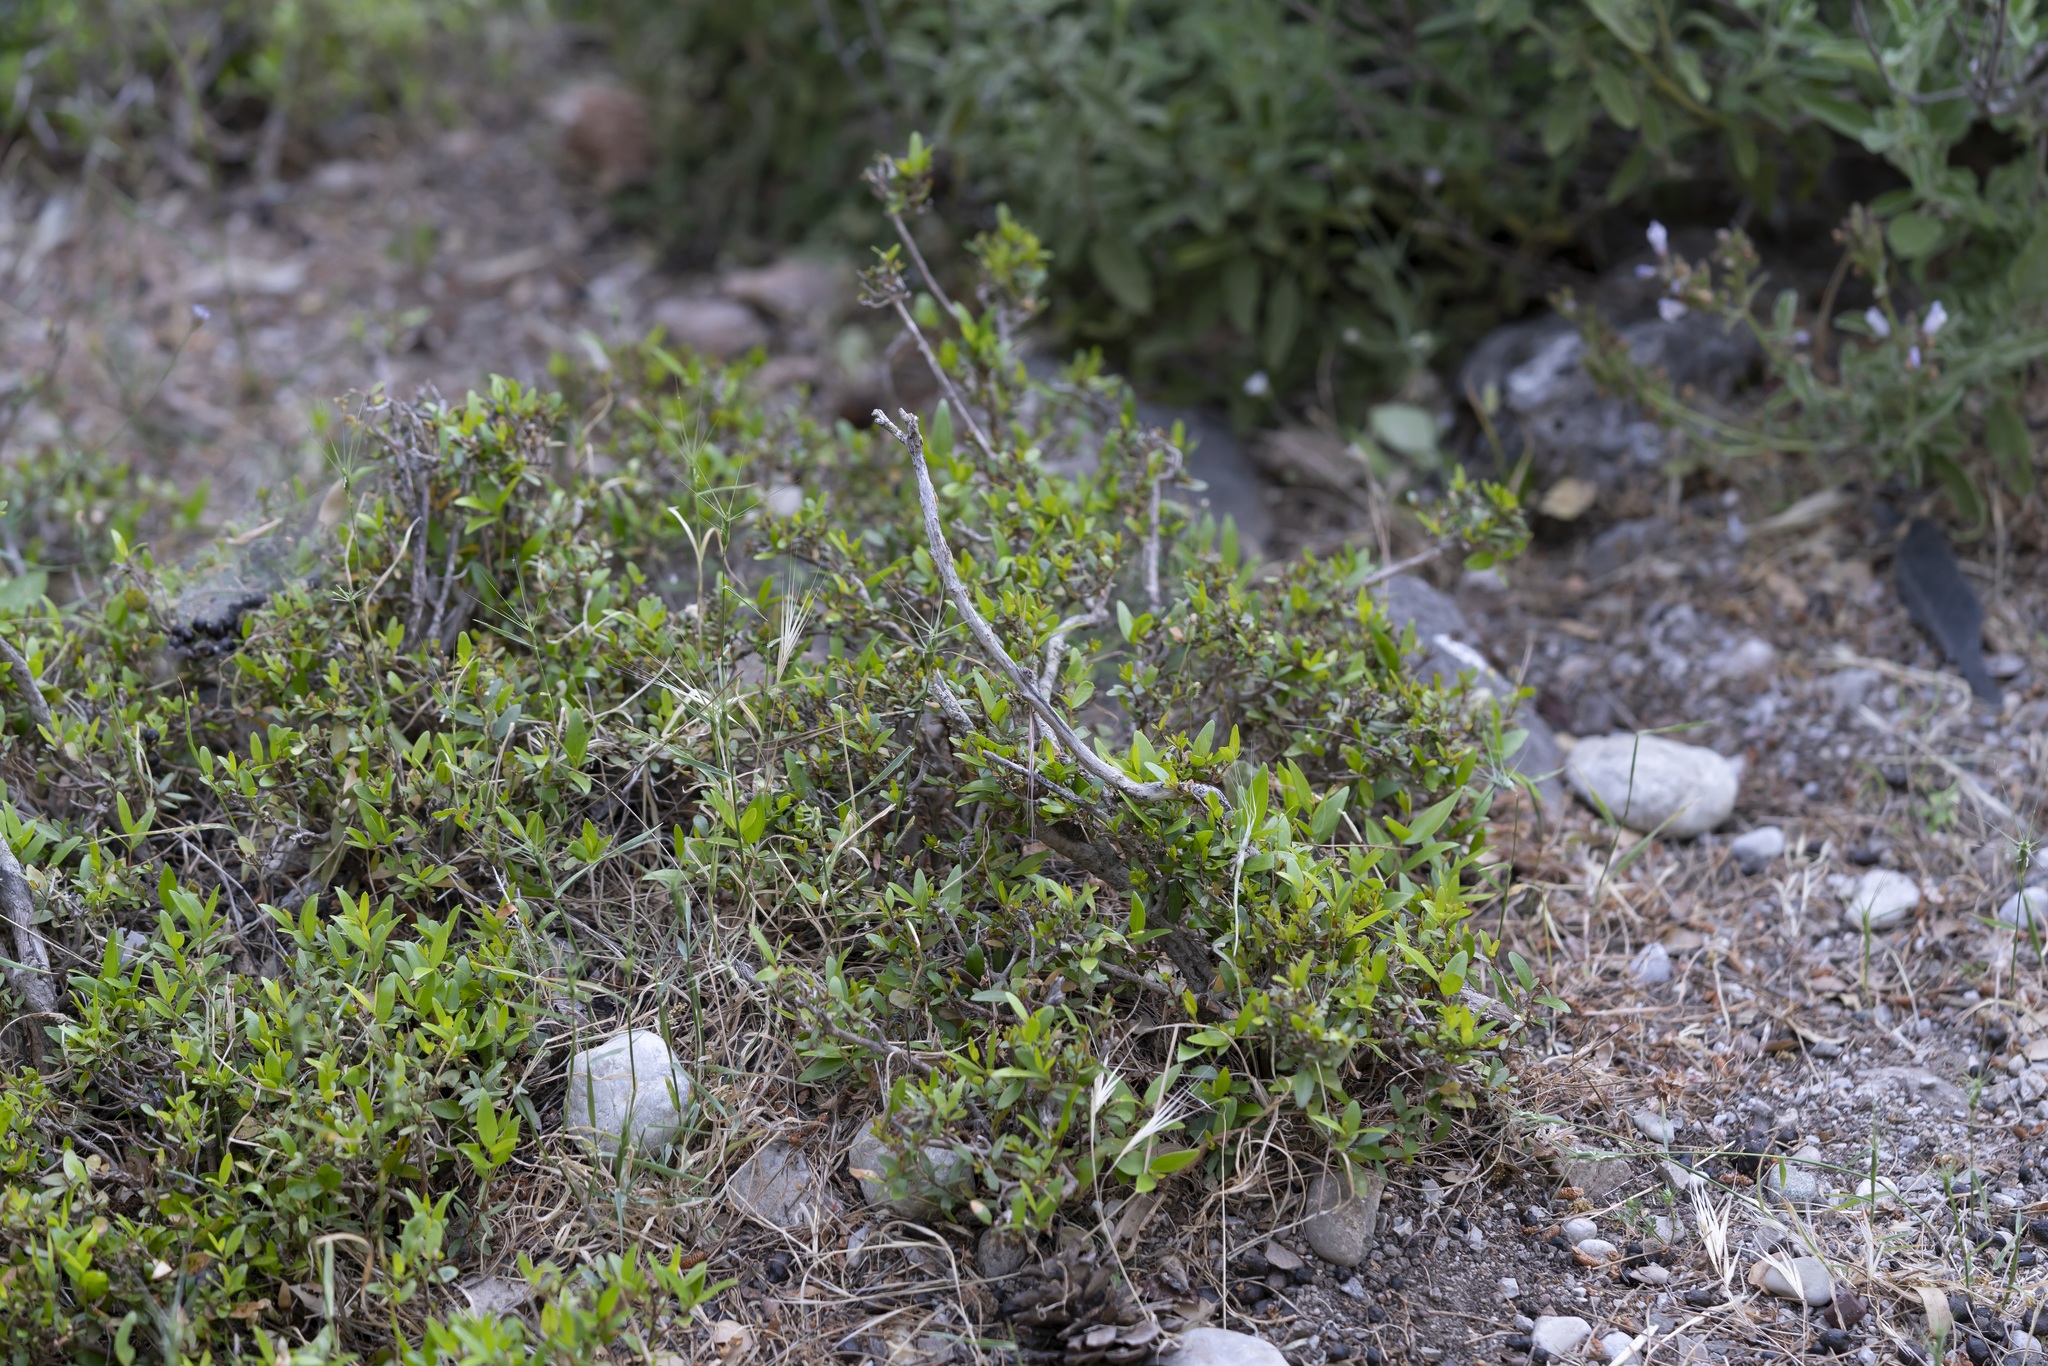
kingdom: Plantae
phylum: Tracheophyta
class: Magnoliopsida
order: Myrtales
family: Myrtaceae
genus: Myrtus
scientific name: Myrtus communis
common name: Myrtle
